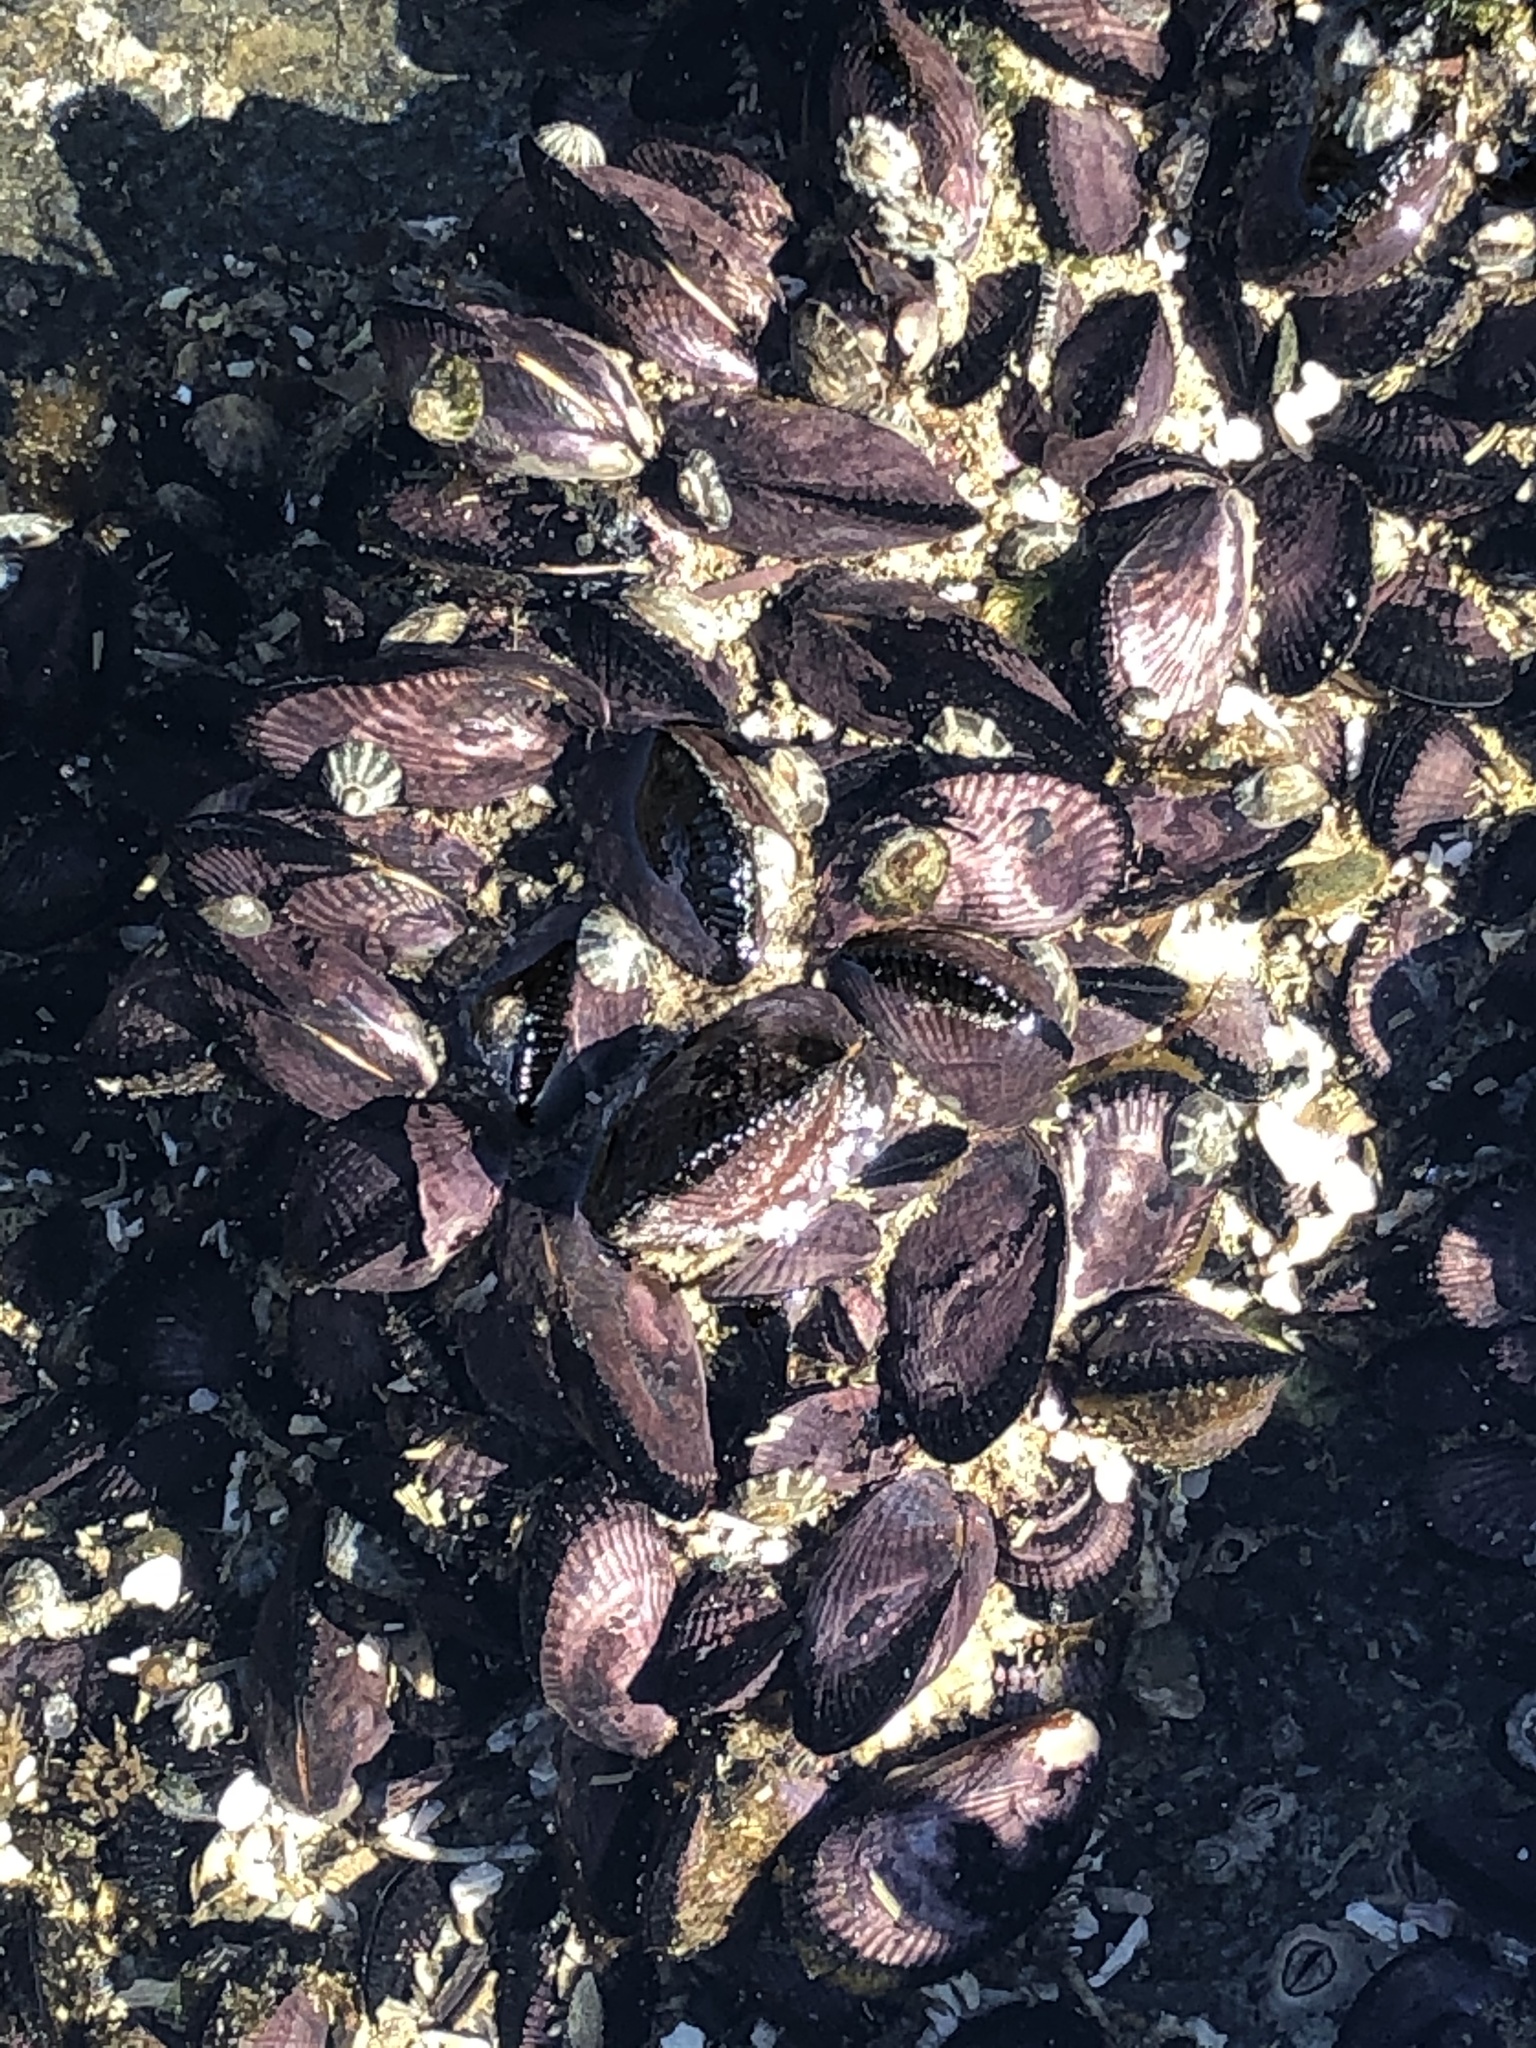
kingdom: Animalia
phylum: Mollusca
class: Bivalvia
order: Mytilida
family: Mytilidae
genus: Perumytilus
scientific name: Perumytilus purpuratus
